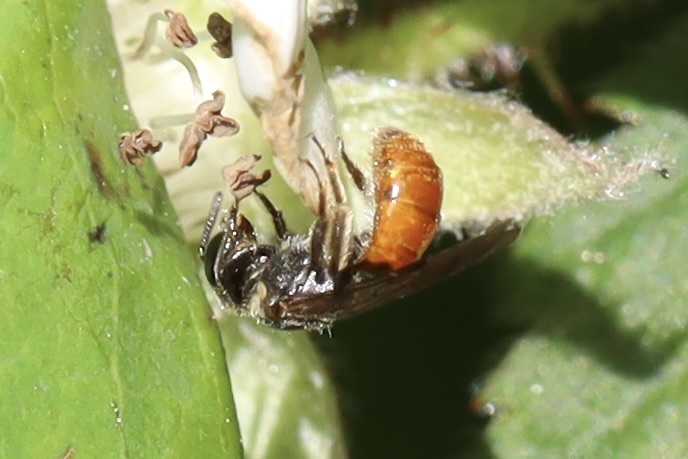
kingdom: Animalia
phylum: Arthropoda
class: Insecta
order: Hymenoptera
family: Halictidae
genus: Lasioglossum
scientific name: Lasioglossum ovaliceps
